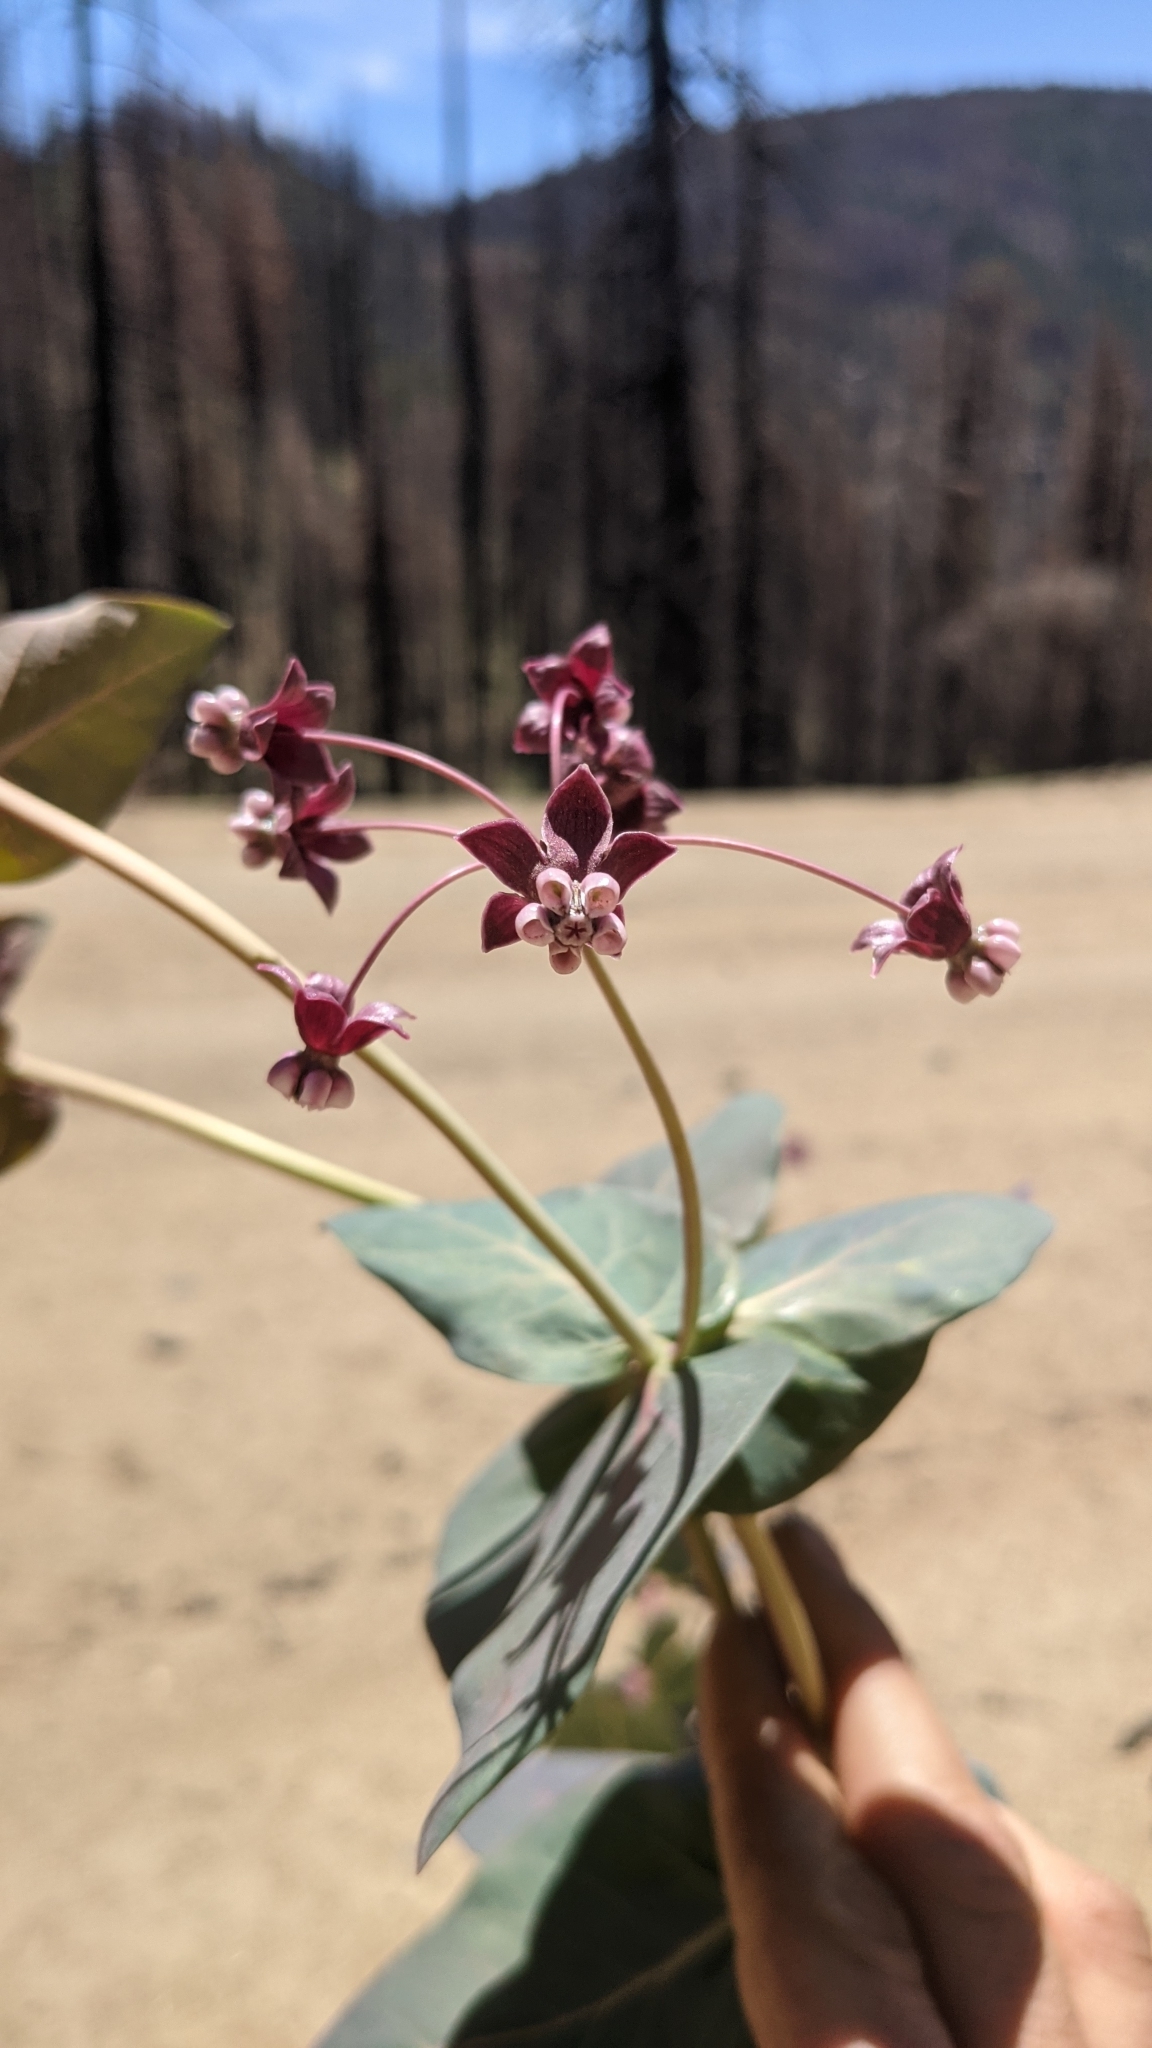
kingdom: Plantae
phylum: Tracheophyta
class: Magnoliopsida
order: Gentianales
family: Apocynaceae
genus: Asclepias
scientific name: Asclepias cordifolia
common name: Purple milkweed
